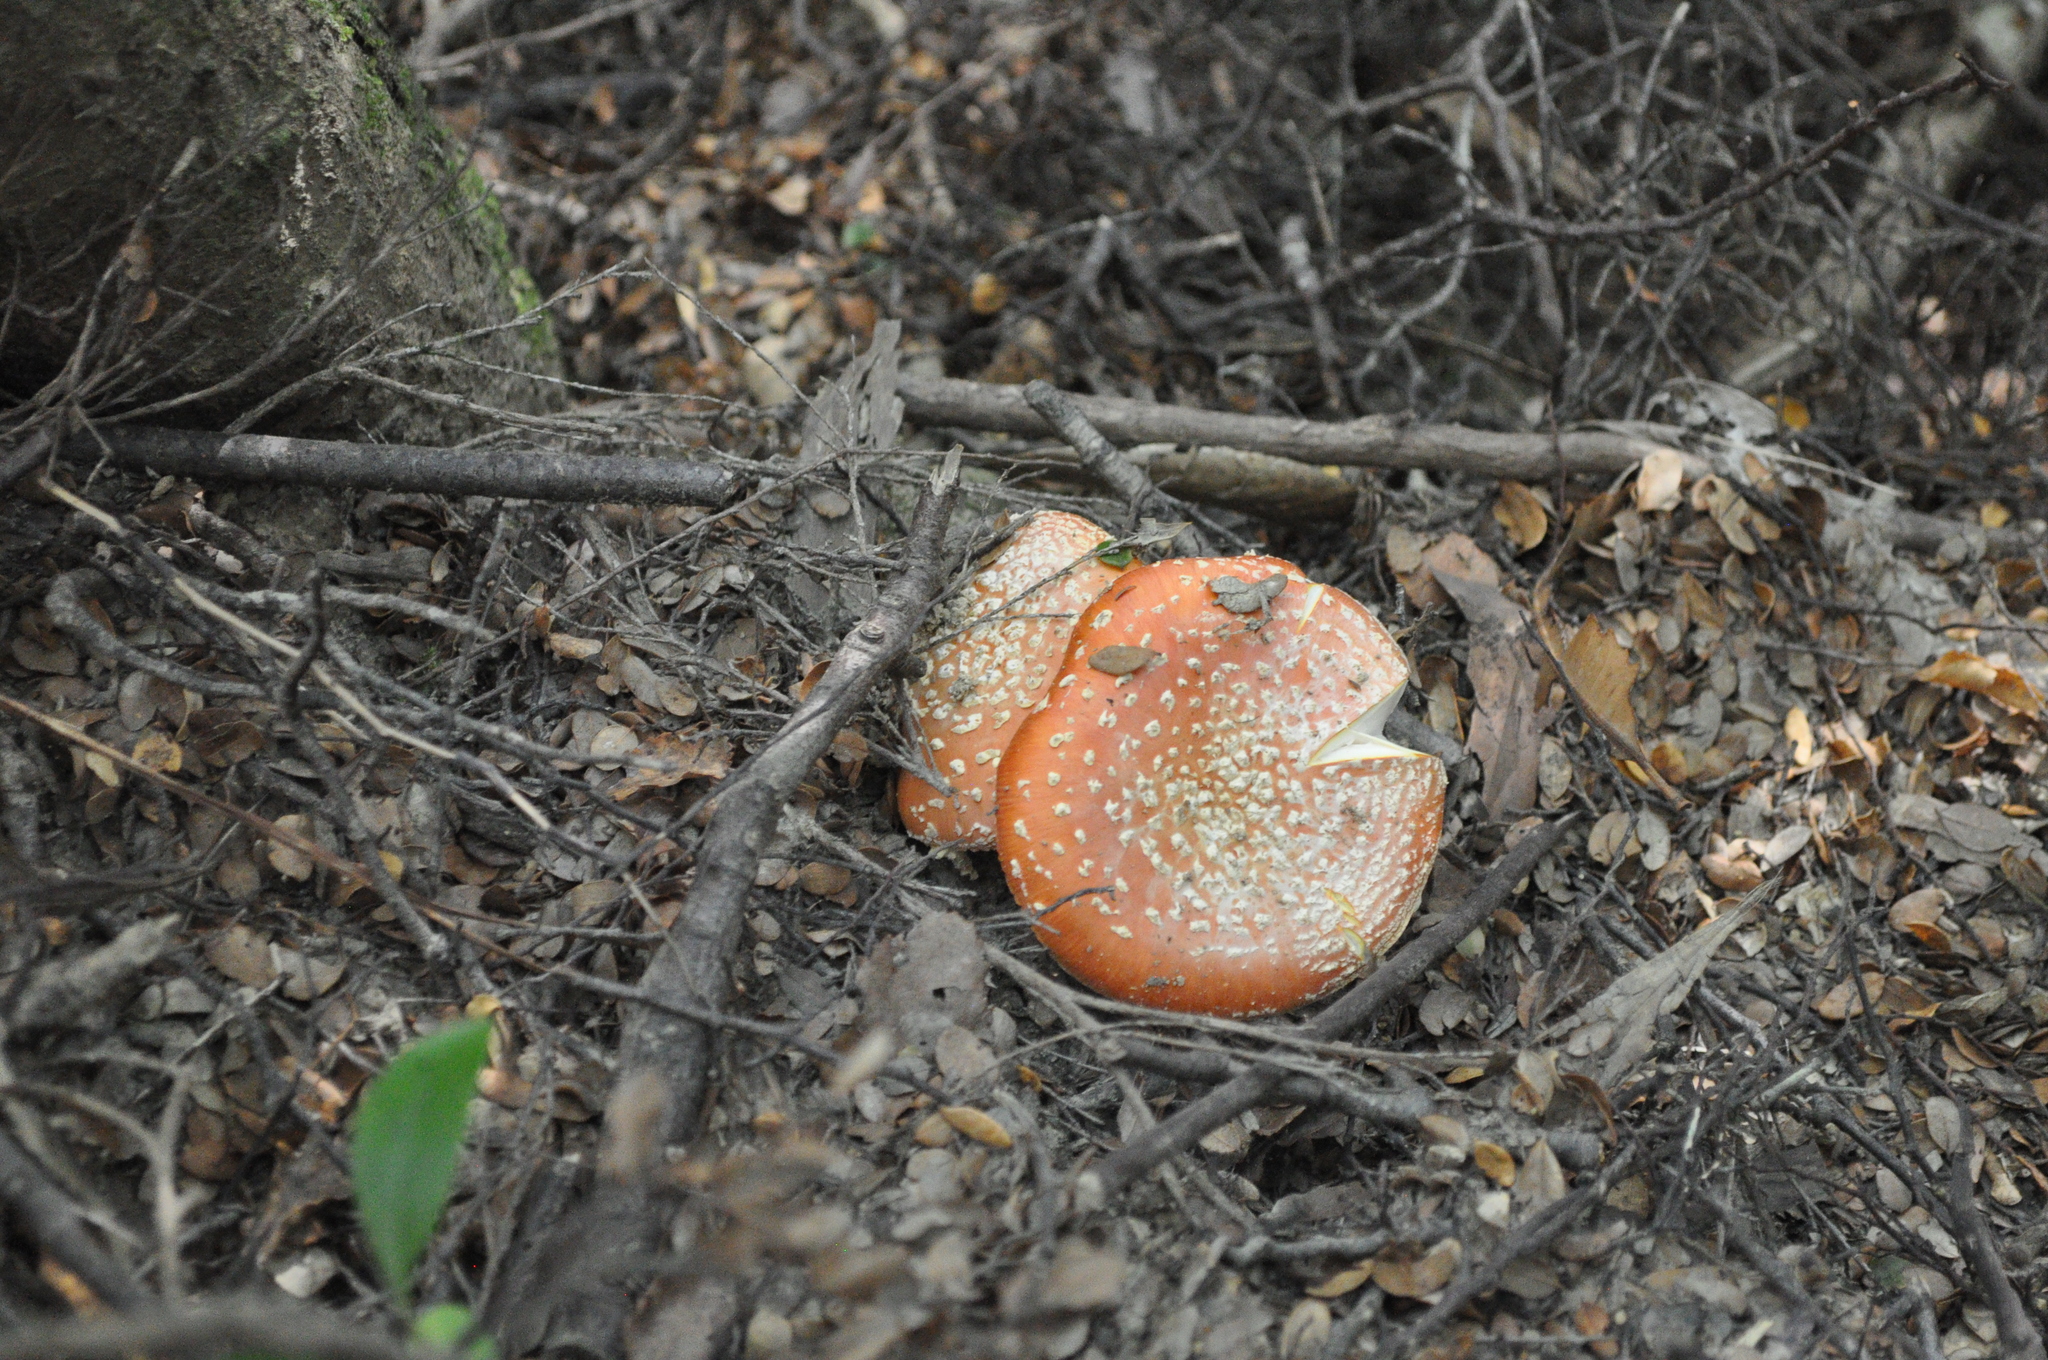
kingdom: Fungi
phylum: Basidiomycota
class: Agaricomycetes
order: Agaricales
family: Amanitaceae
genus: Amanita
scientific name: Amanita muscaria
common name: Fly agaric
